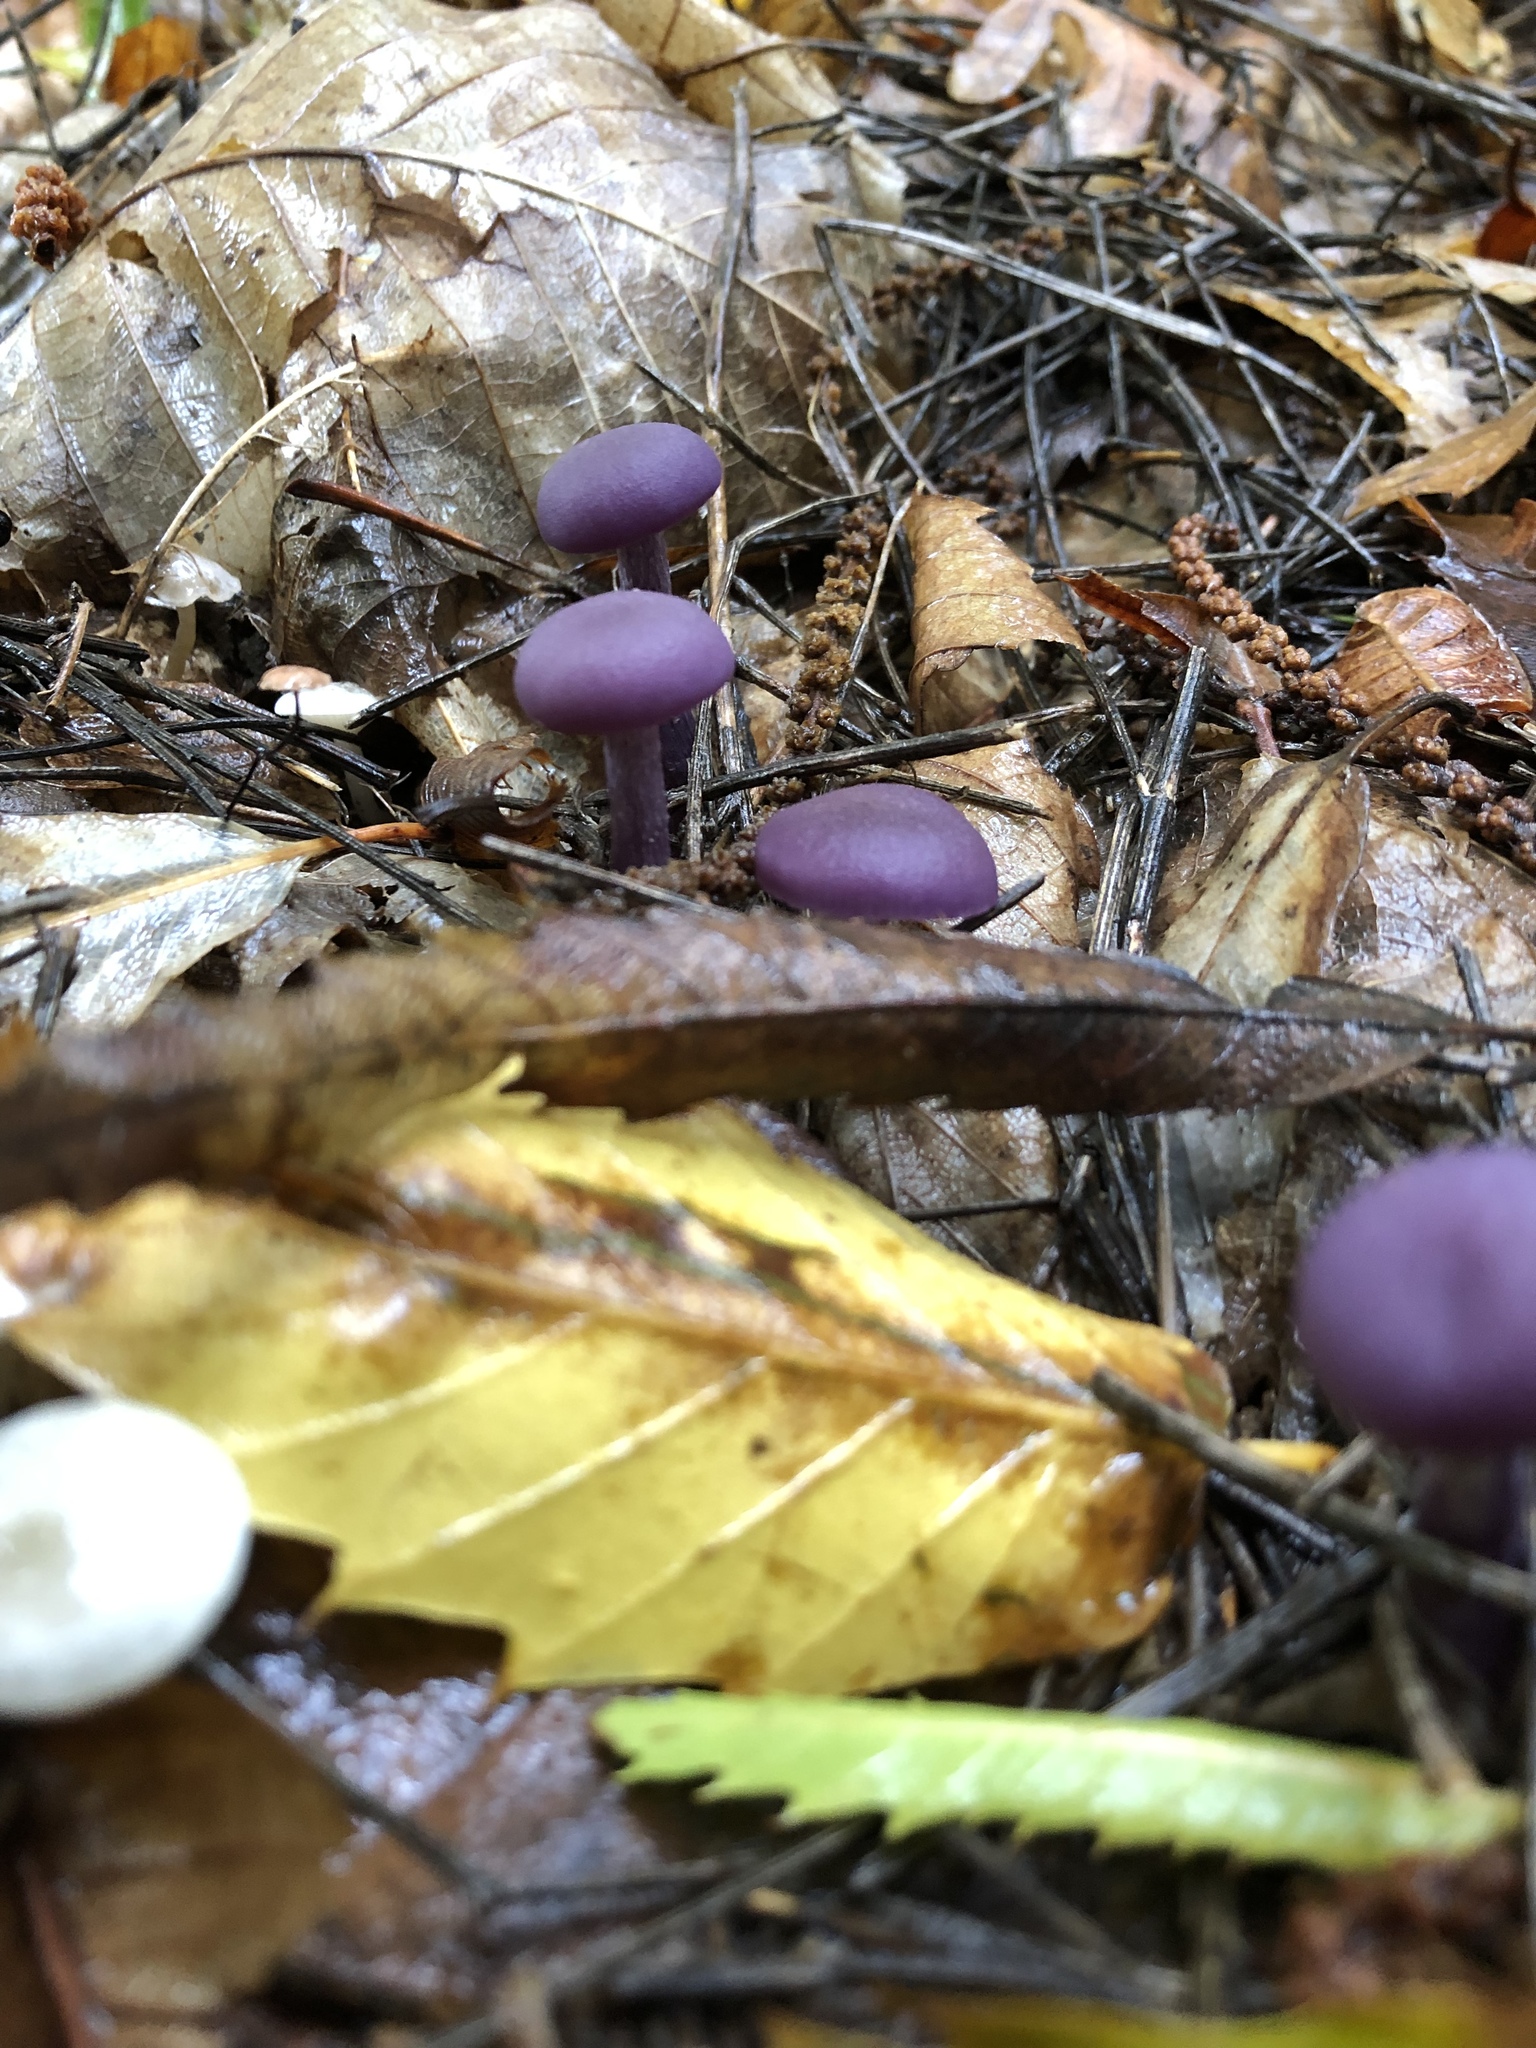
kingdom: Fungi
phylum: Basidiomycota
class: Agaricomycetes
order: Agaricales
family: Hydnangiaceae
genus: Laccaria
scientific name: Laccaria amethystina
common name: Amethyst deceiver
